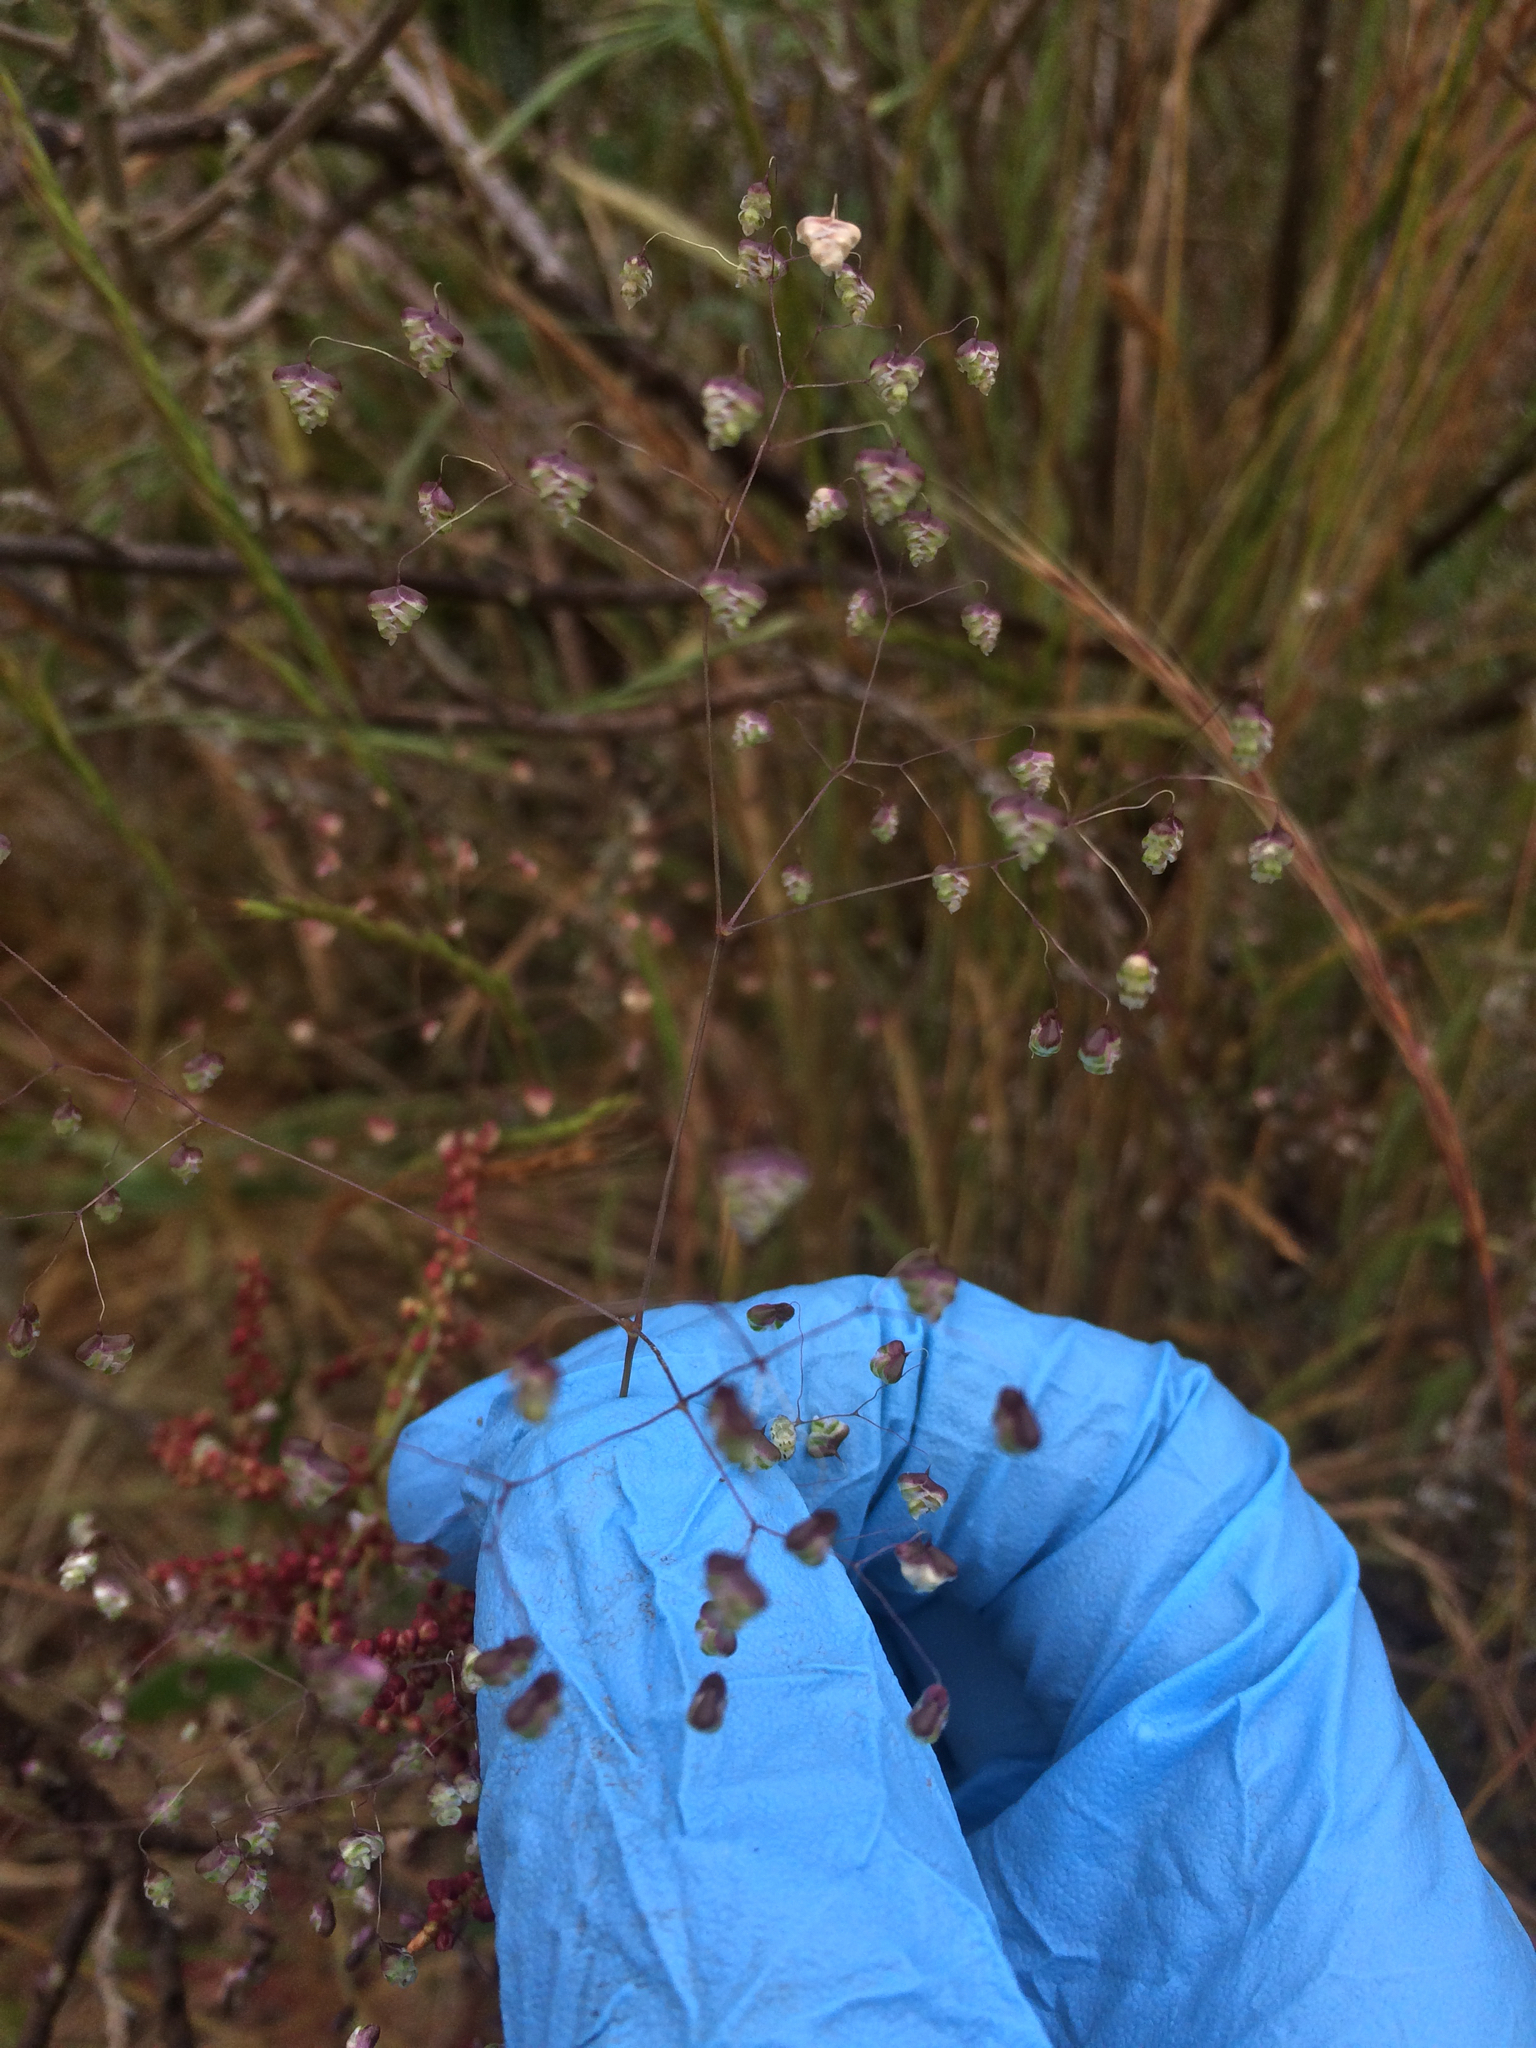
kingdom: Plantae
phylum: Tracheophyta
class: Liliopsida
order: Poales
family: Poaceae
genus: Briza
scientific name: Briza minor
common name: Lesser quaking-grass
